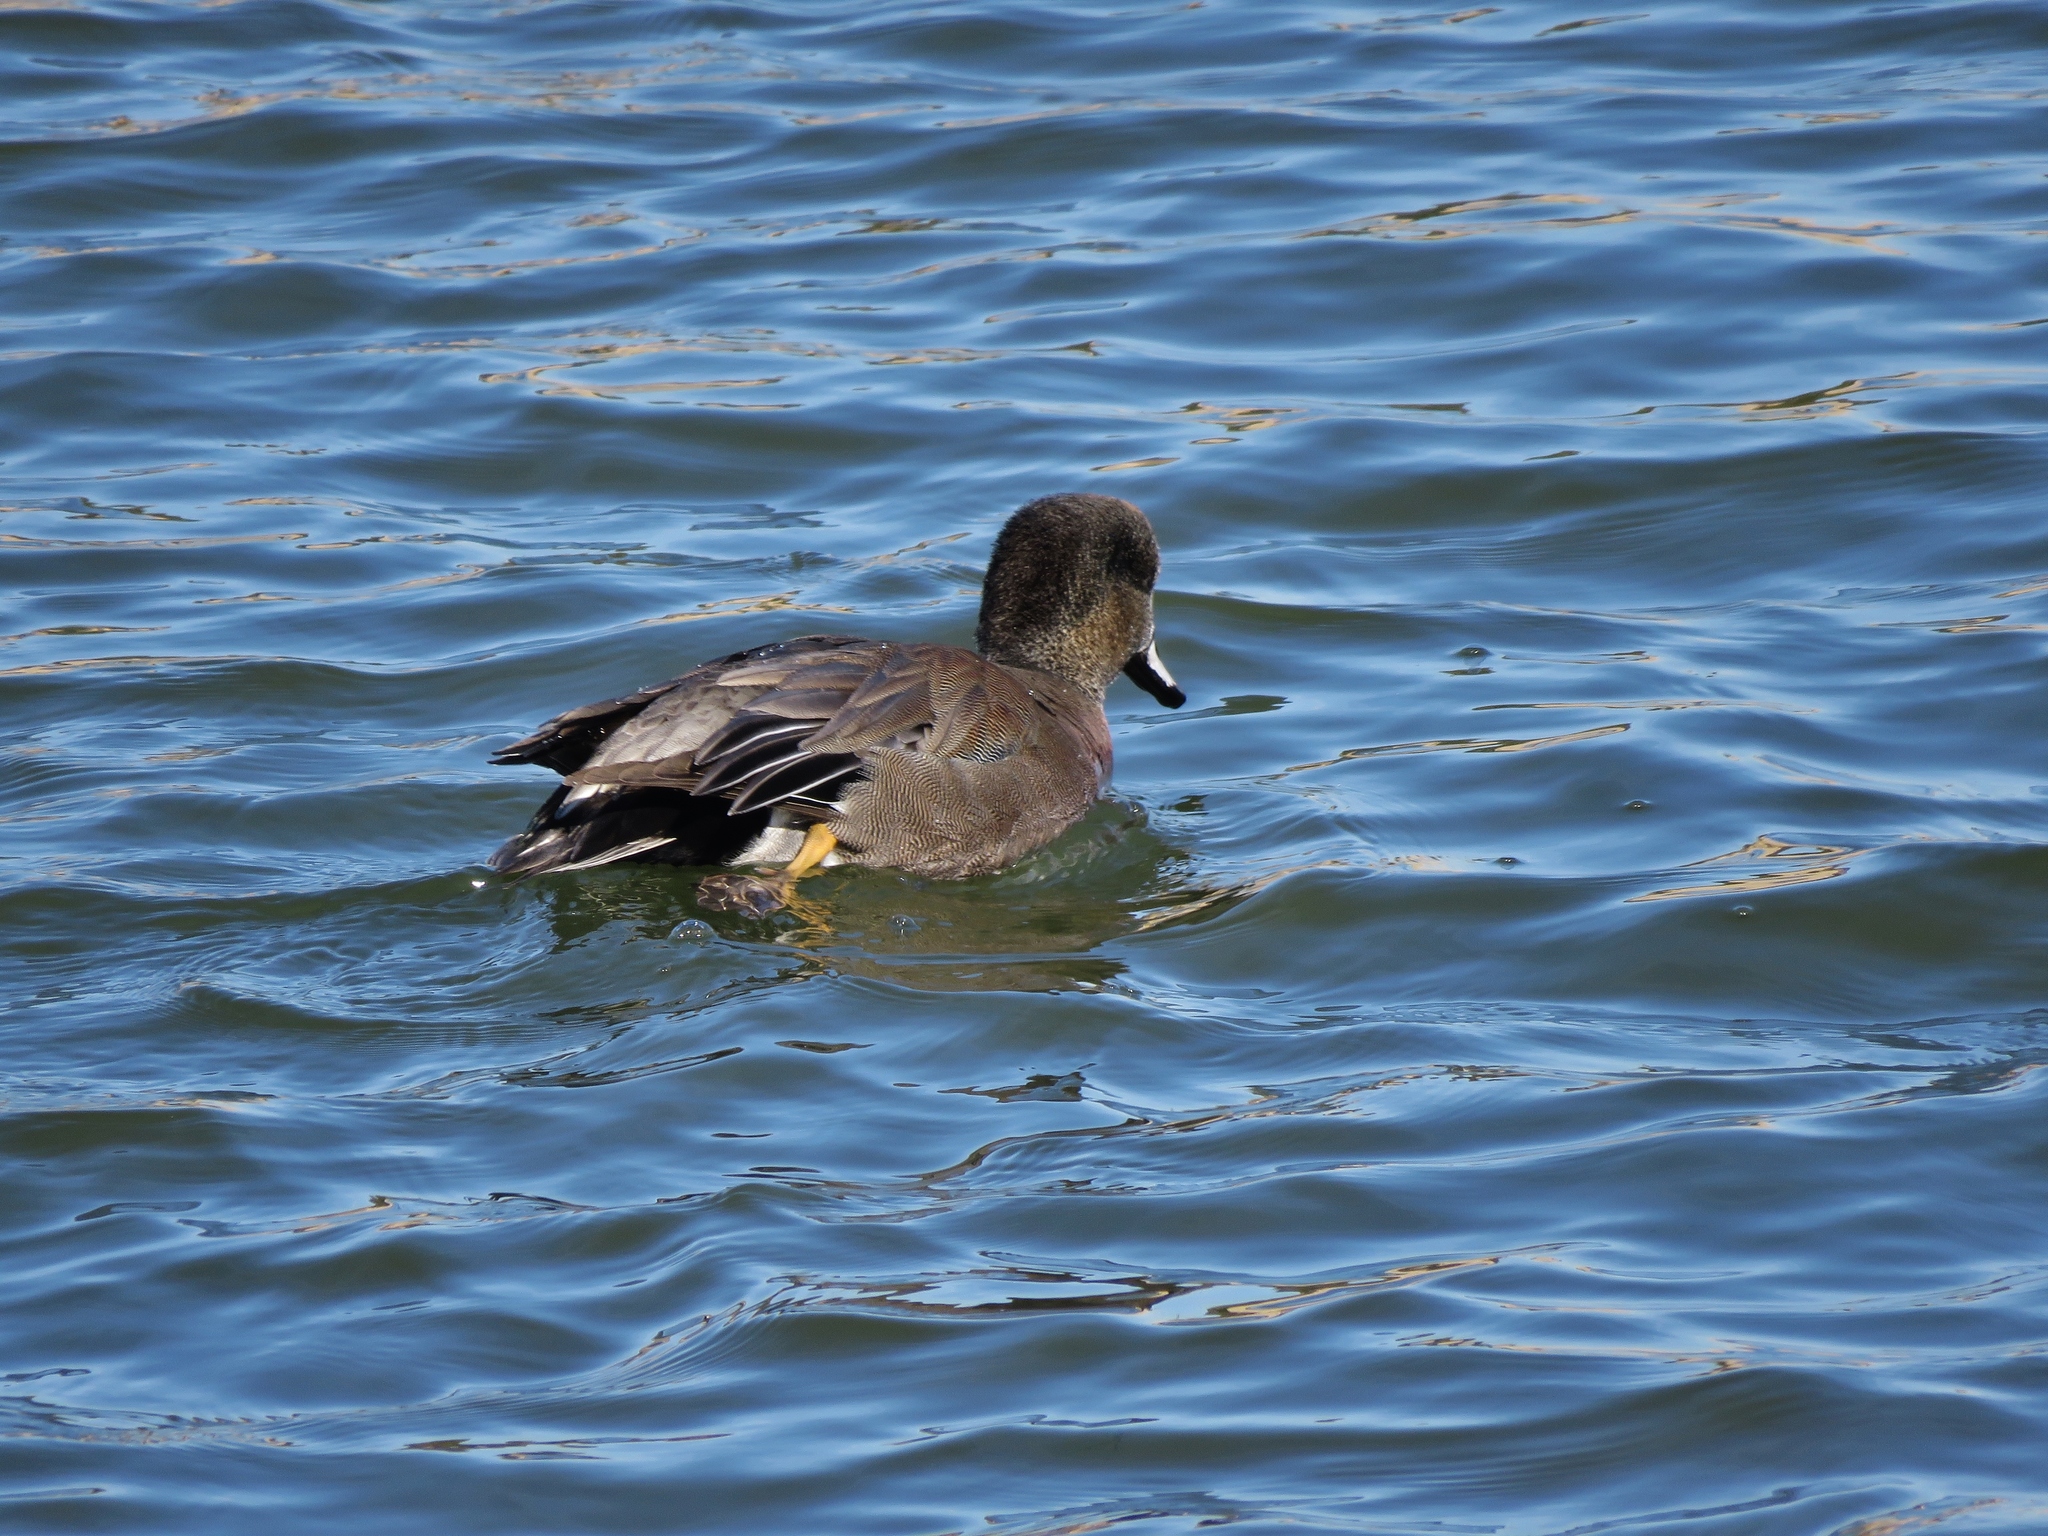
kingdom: Animalia
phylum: Chordata
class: Aves
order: Anseriformes
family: Anatidae
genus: Mareca
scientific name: Mareca strepera
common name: Gadwall
